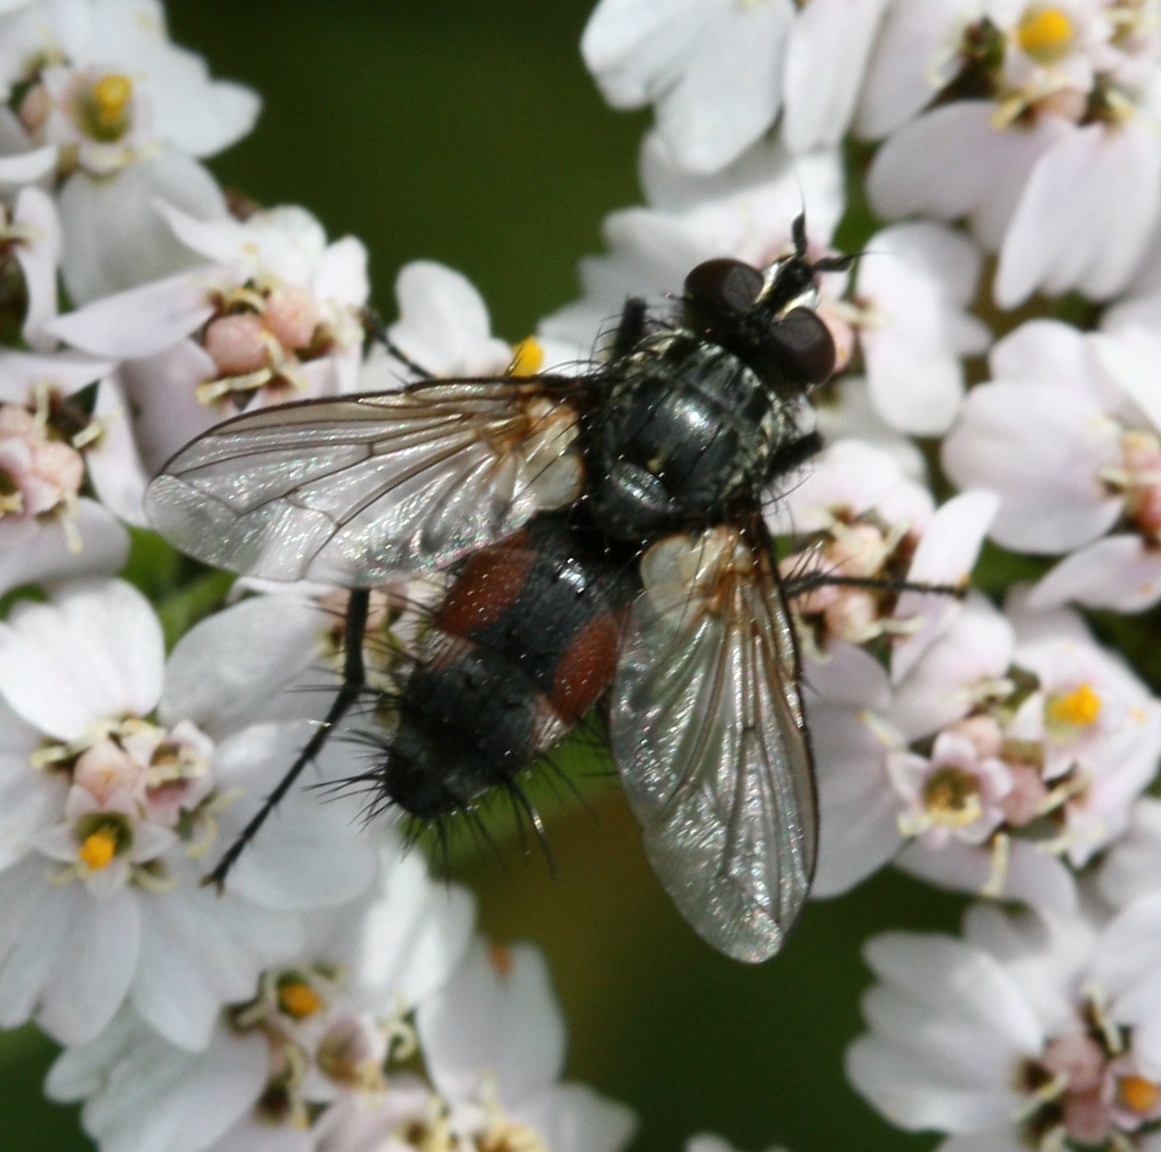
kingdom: Animalia
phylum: Arthropoda
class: Insecta
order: Diptera
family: Tachinidae
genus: Eriothrix
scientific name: Eriothrix rufomaculatus
